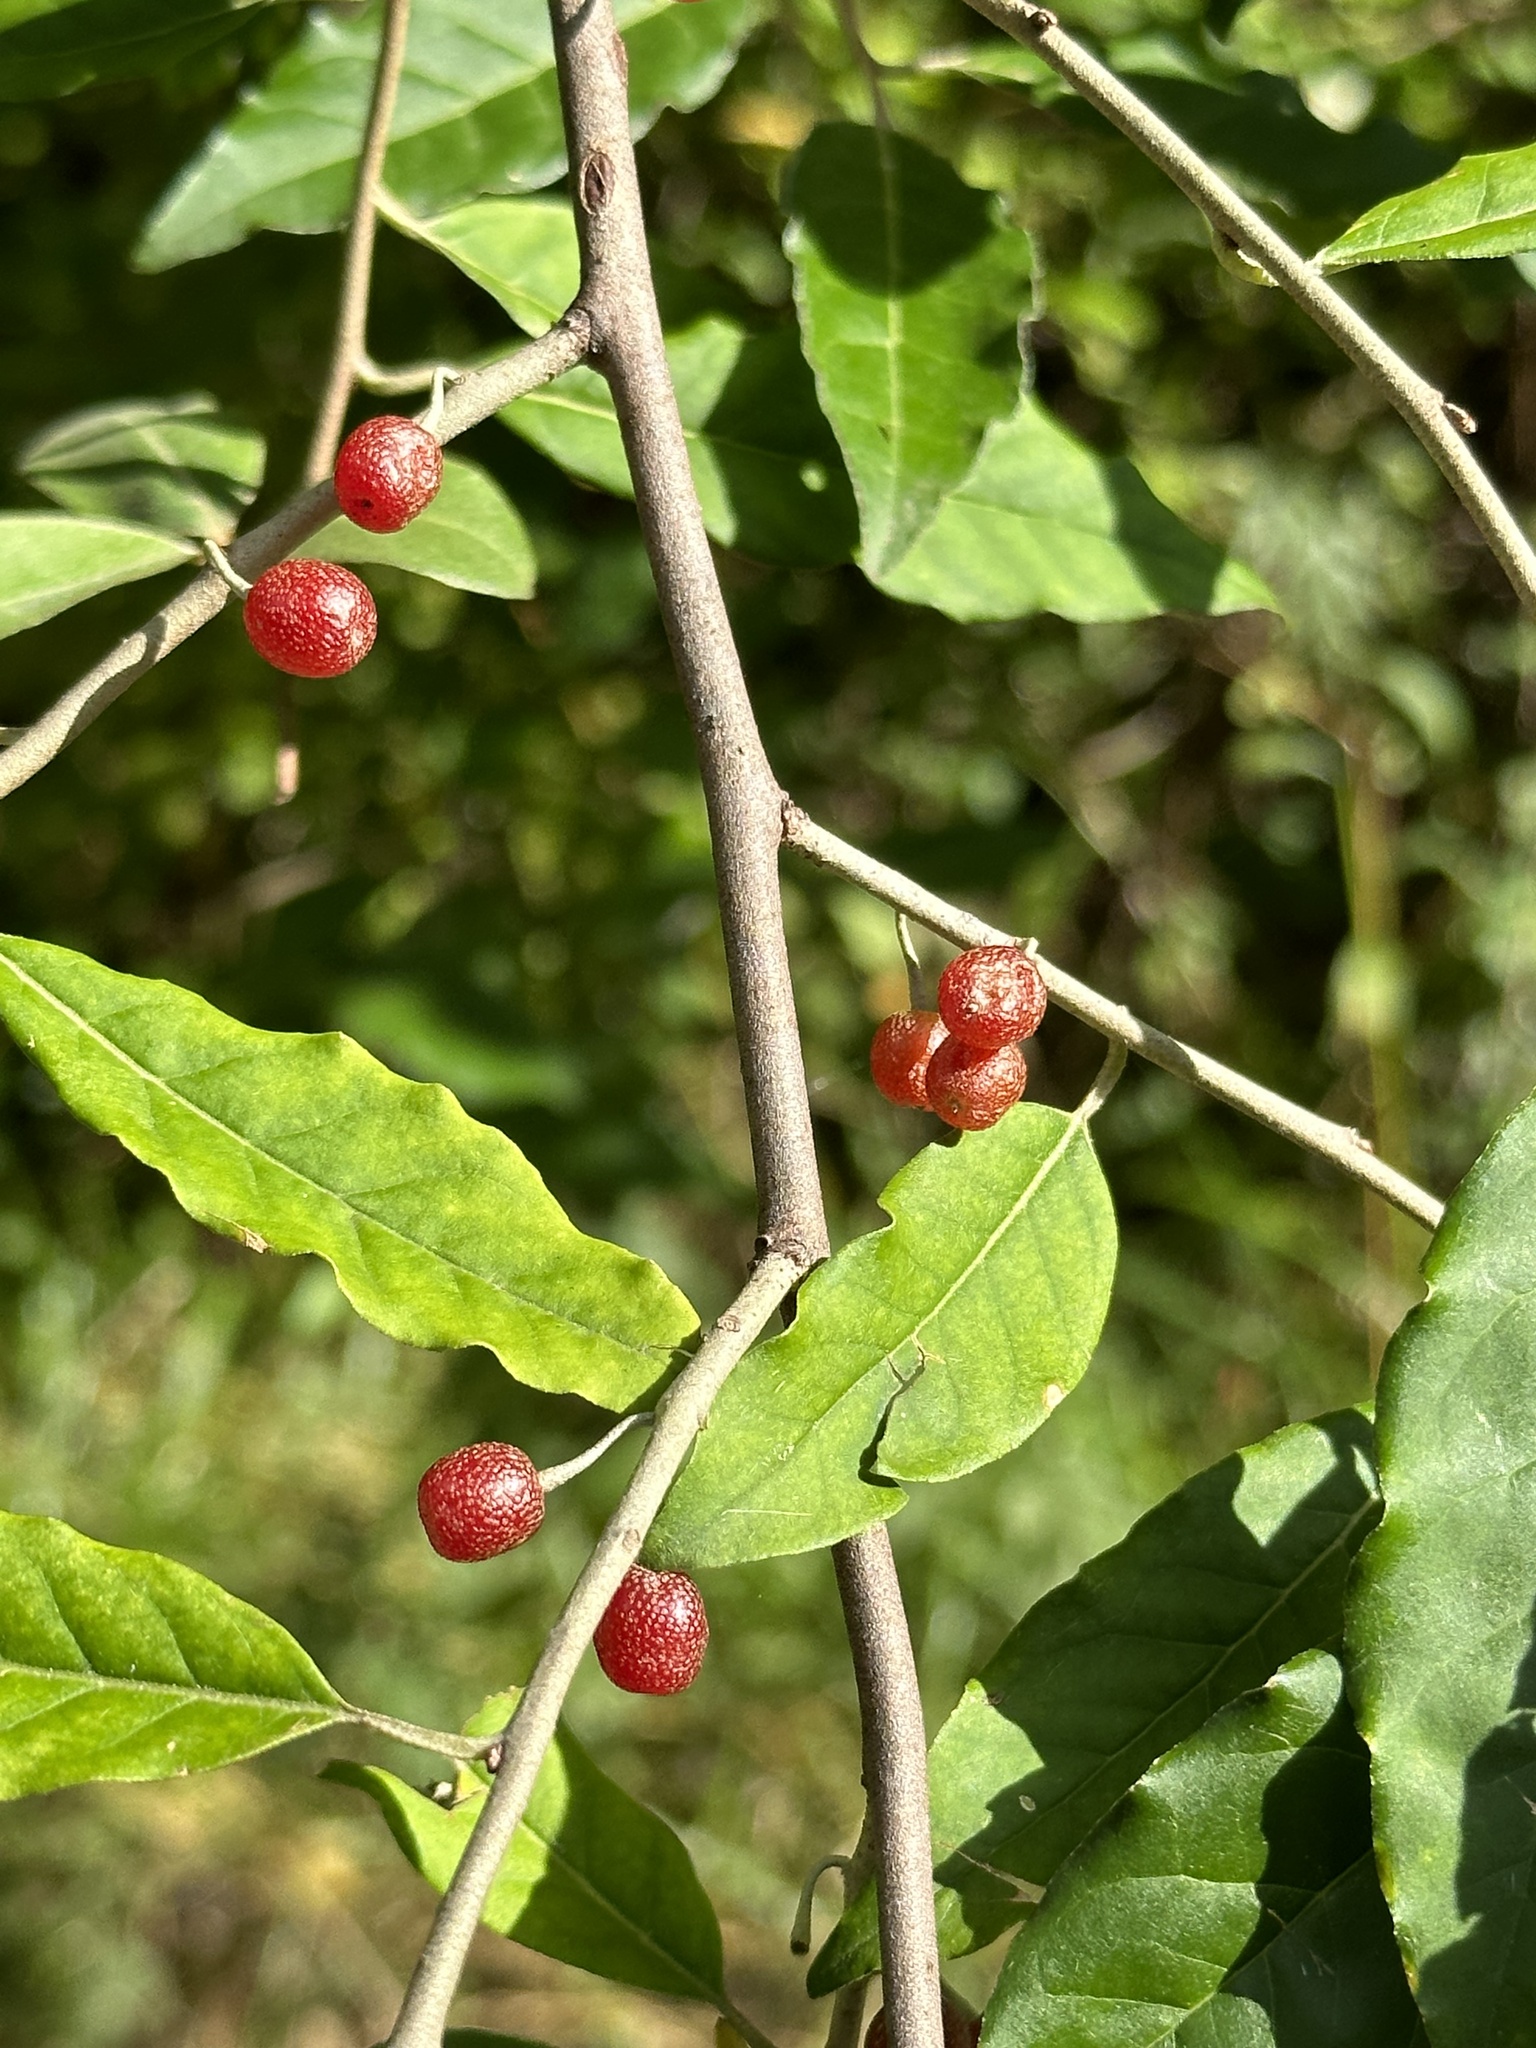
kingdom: Plantae
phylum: Tracheophyta
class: Magnoliopsida
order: Rosales
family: Elaeagnaceae
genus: Elaeagnus
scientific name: Elaeagnus umbellata
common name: Autumn olive
